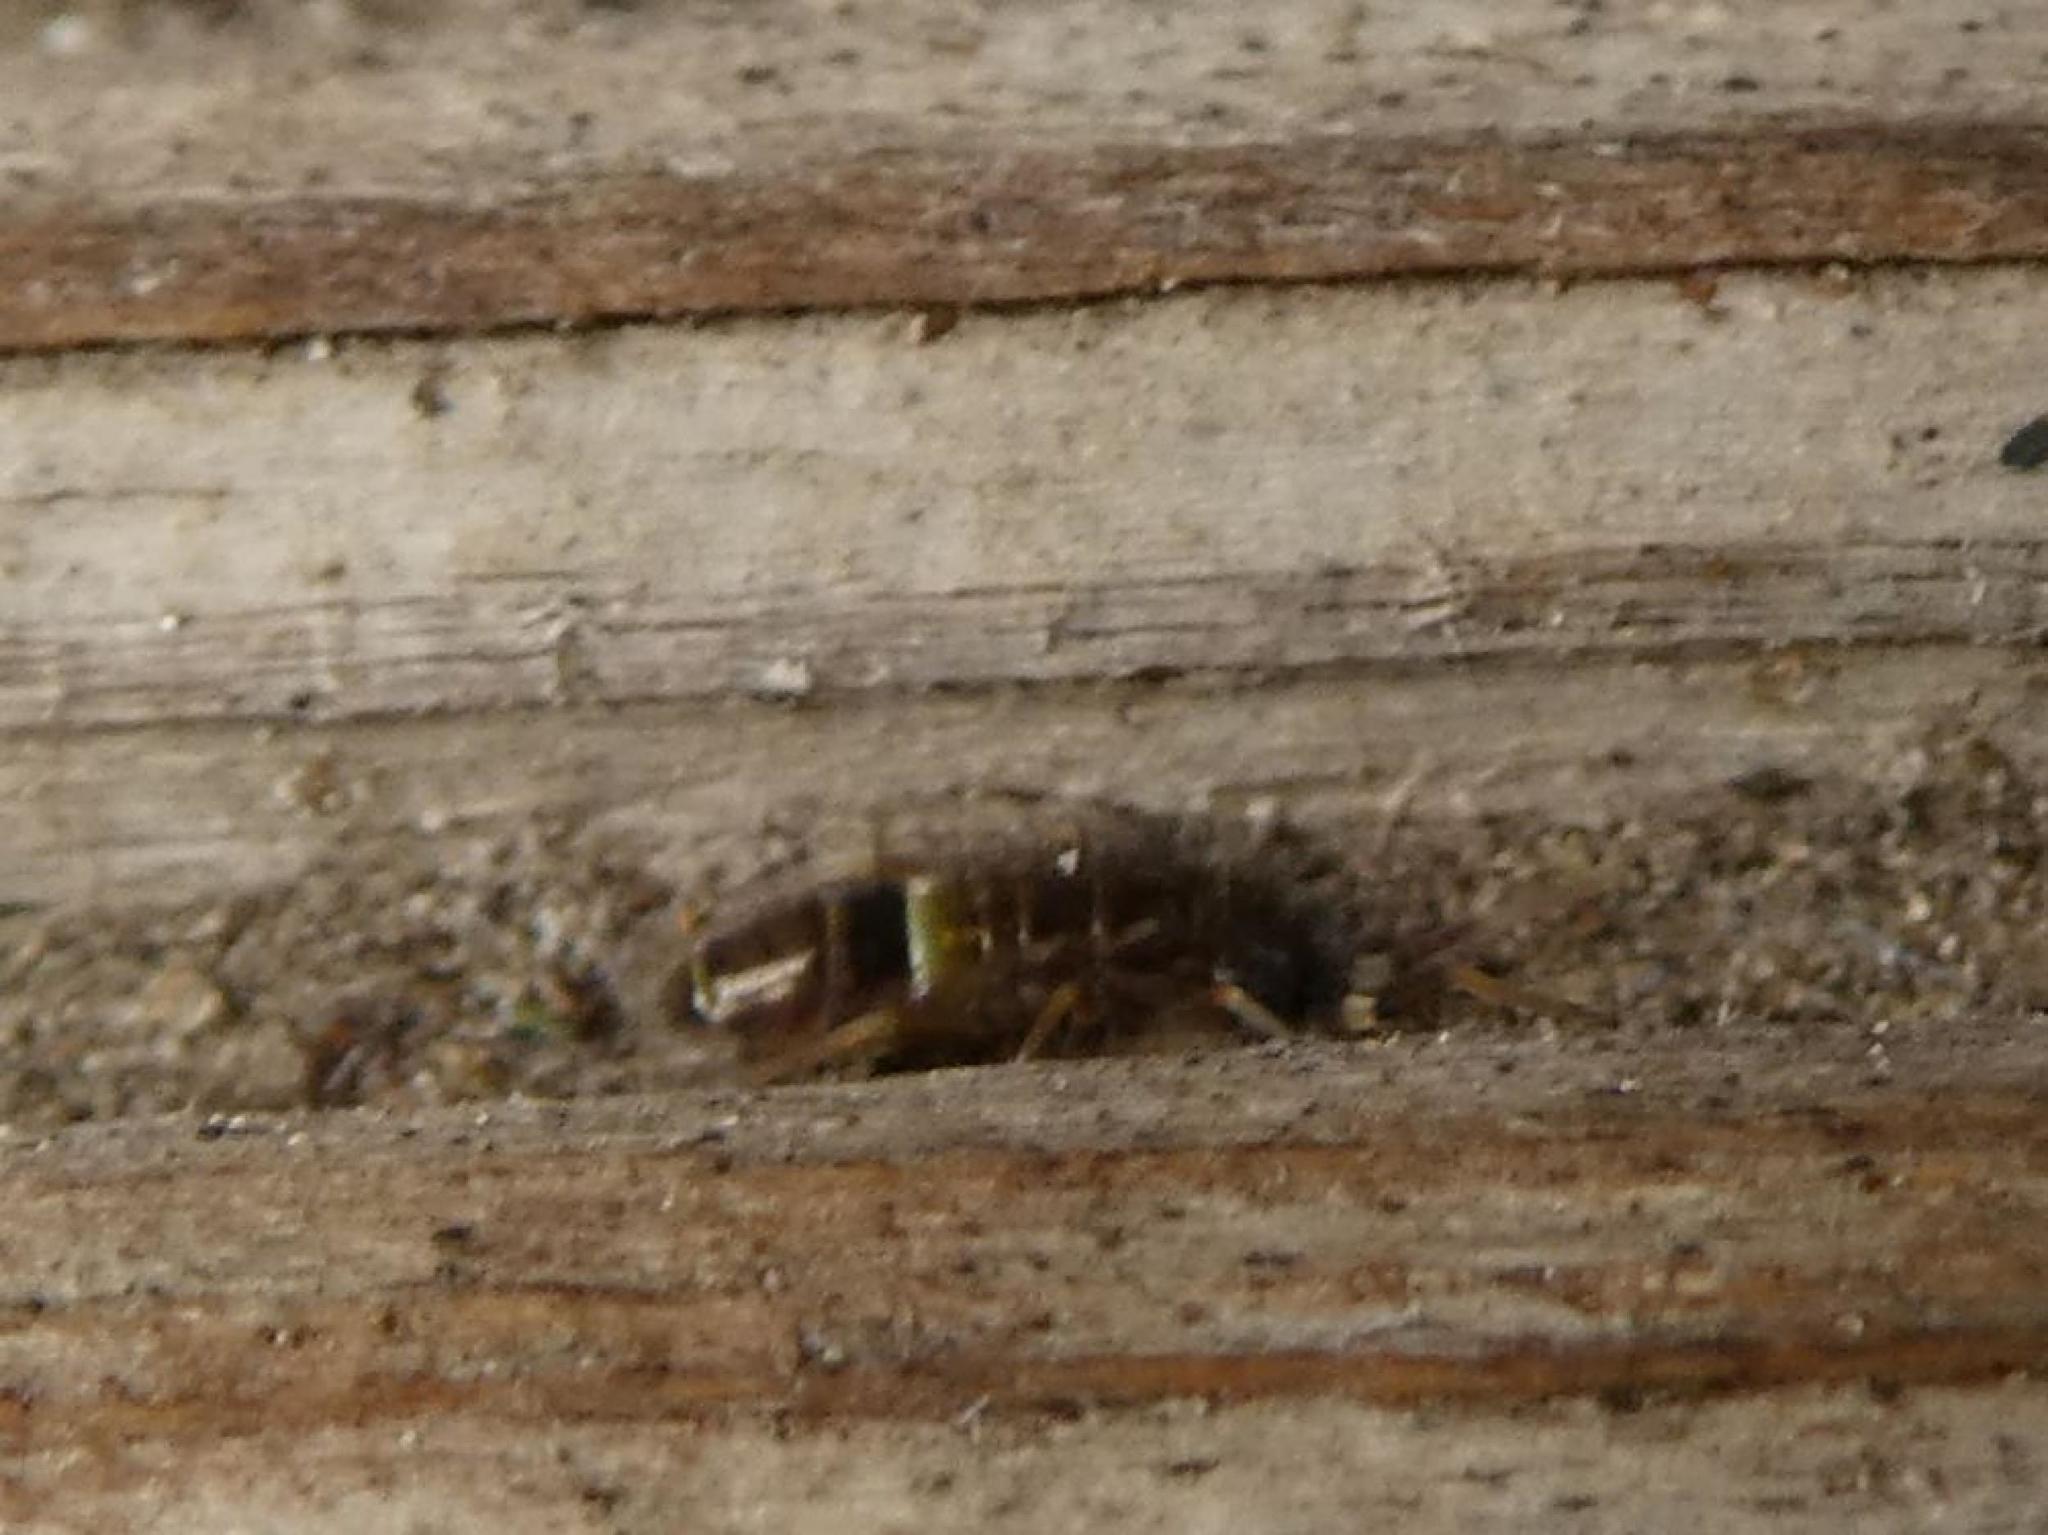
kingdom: Animalia
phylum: Arthropoda
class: Collembola
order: Entomobryomorpha
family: Orchesellidae
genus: Orchesella
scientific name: Orchesella cincta
